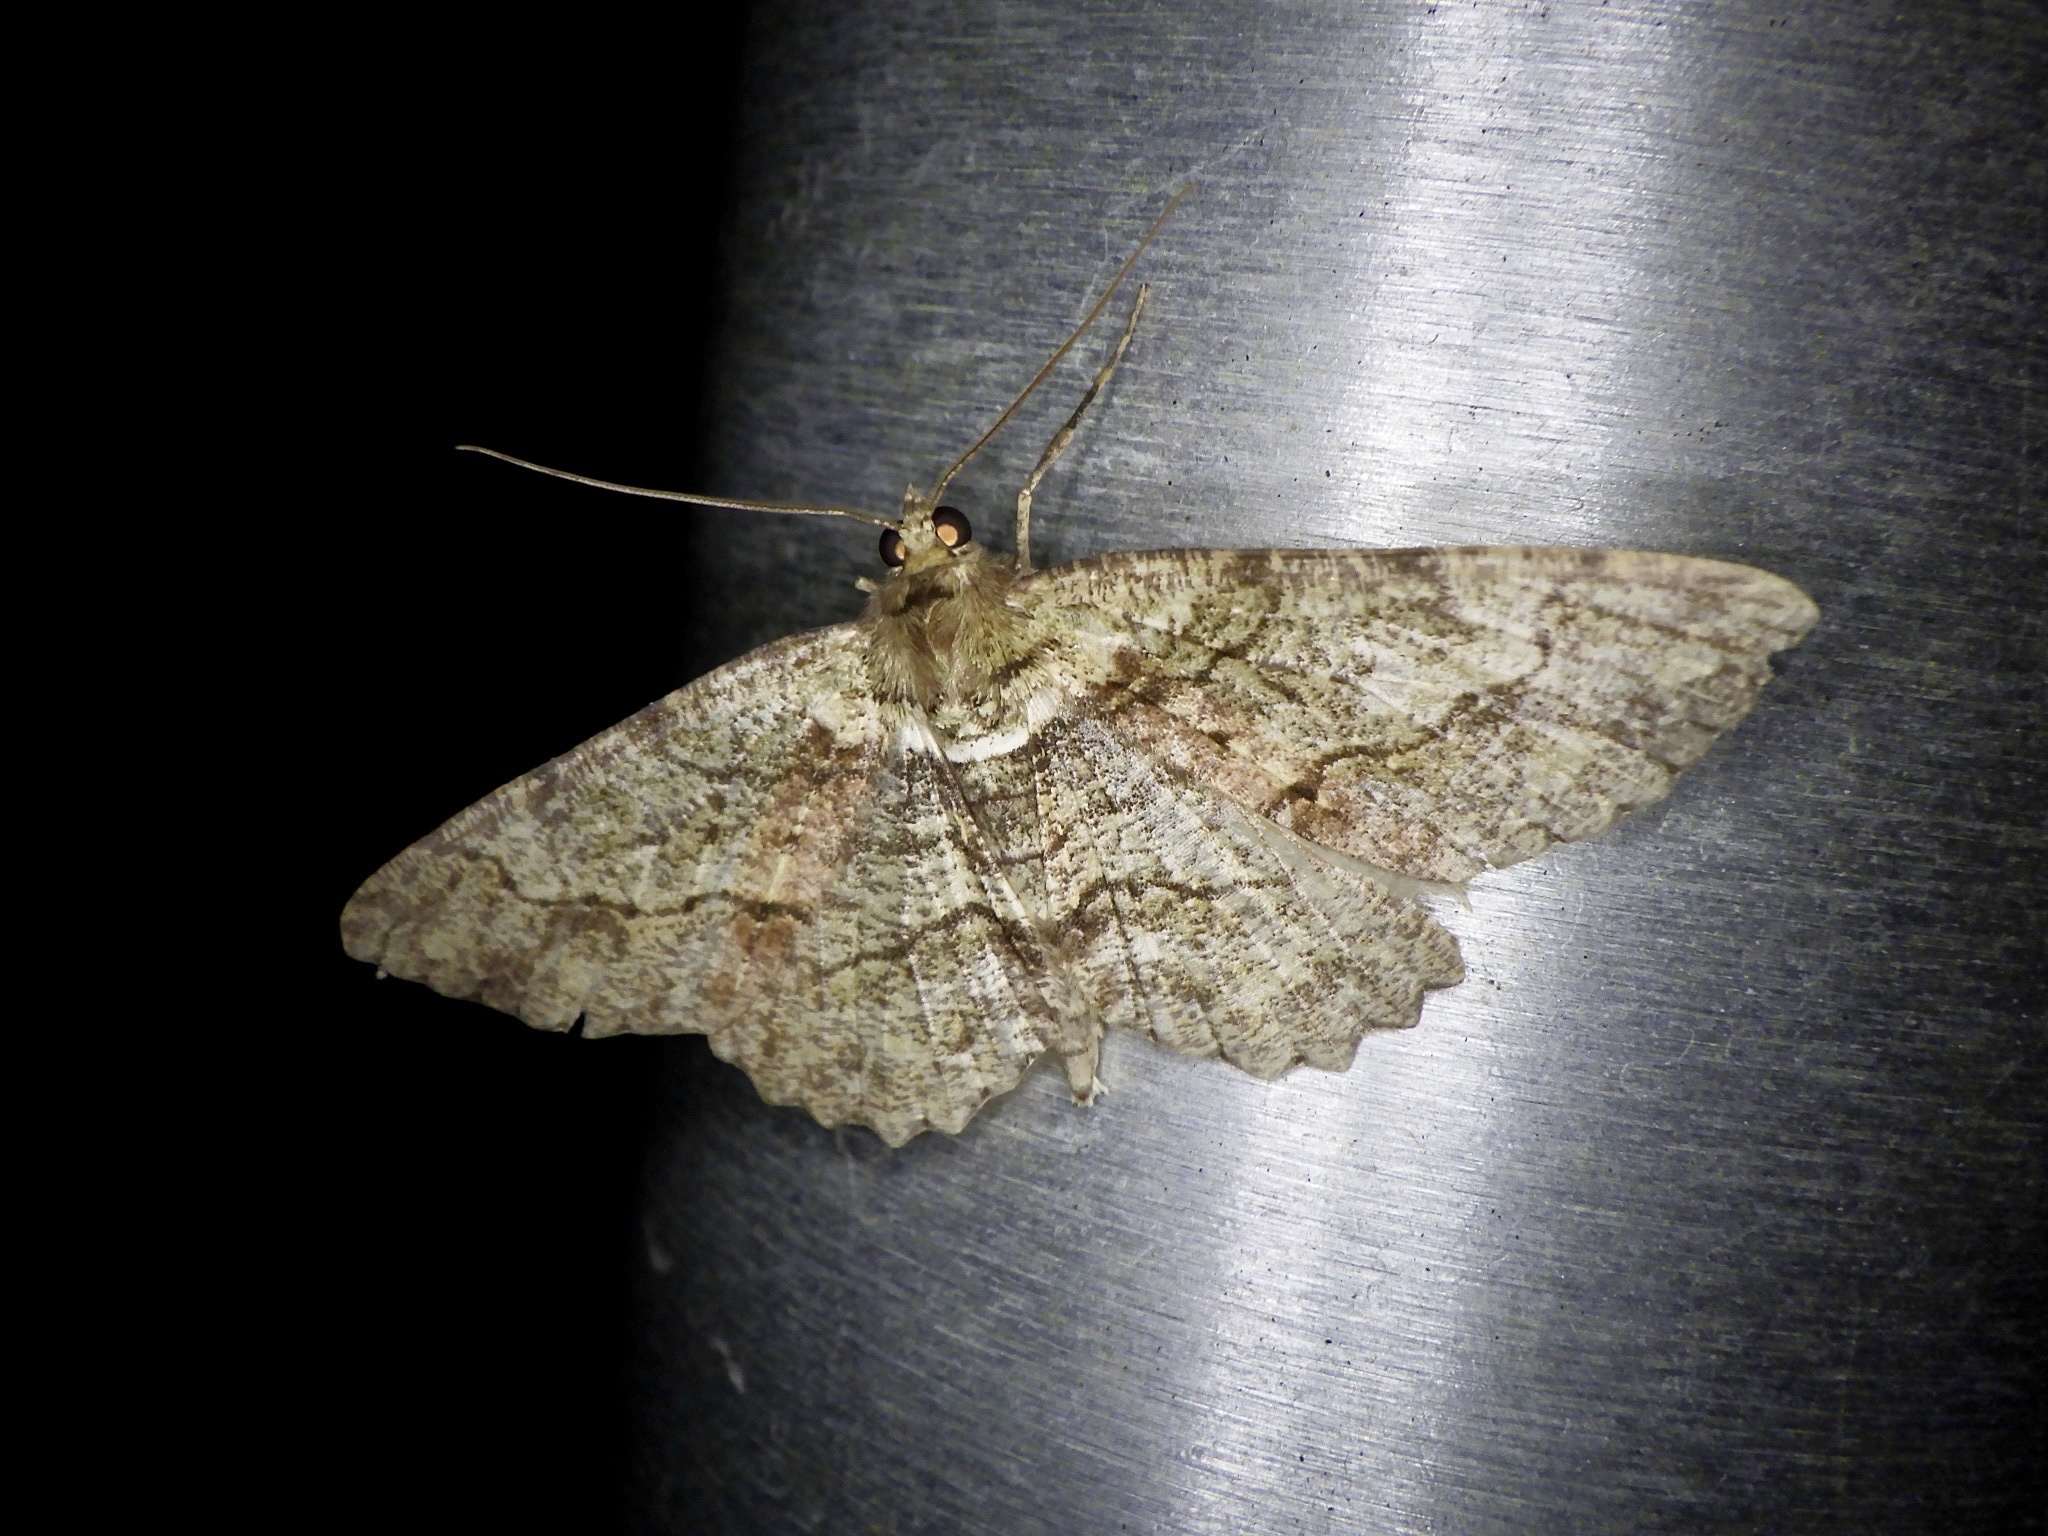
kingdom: Animalia
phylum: Arthropoda
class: Insecta
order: Lepidoptera
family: Geometridae
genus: Paradarisa
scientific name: Paradarisa chloauges
